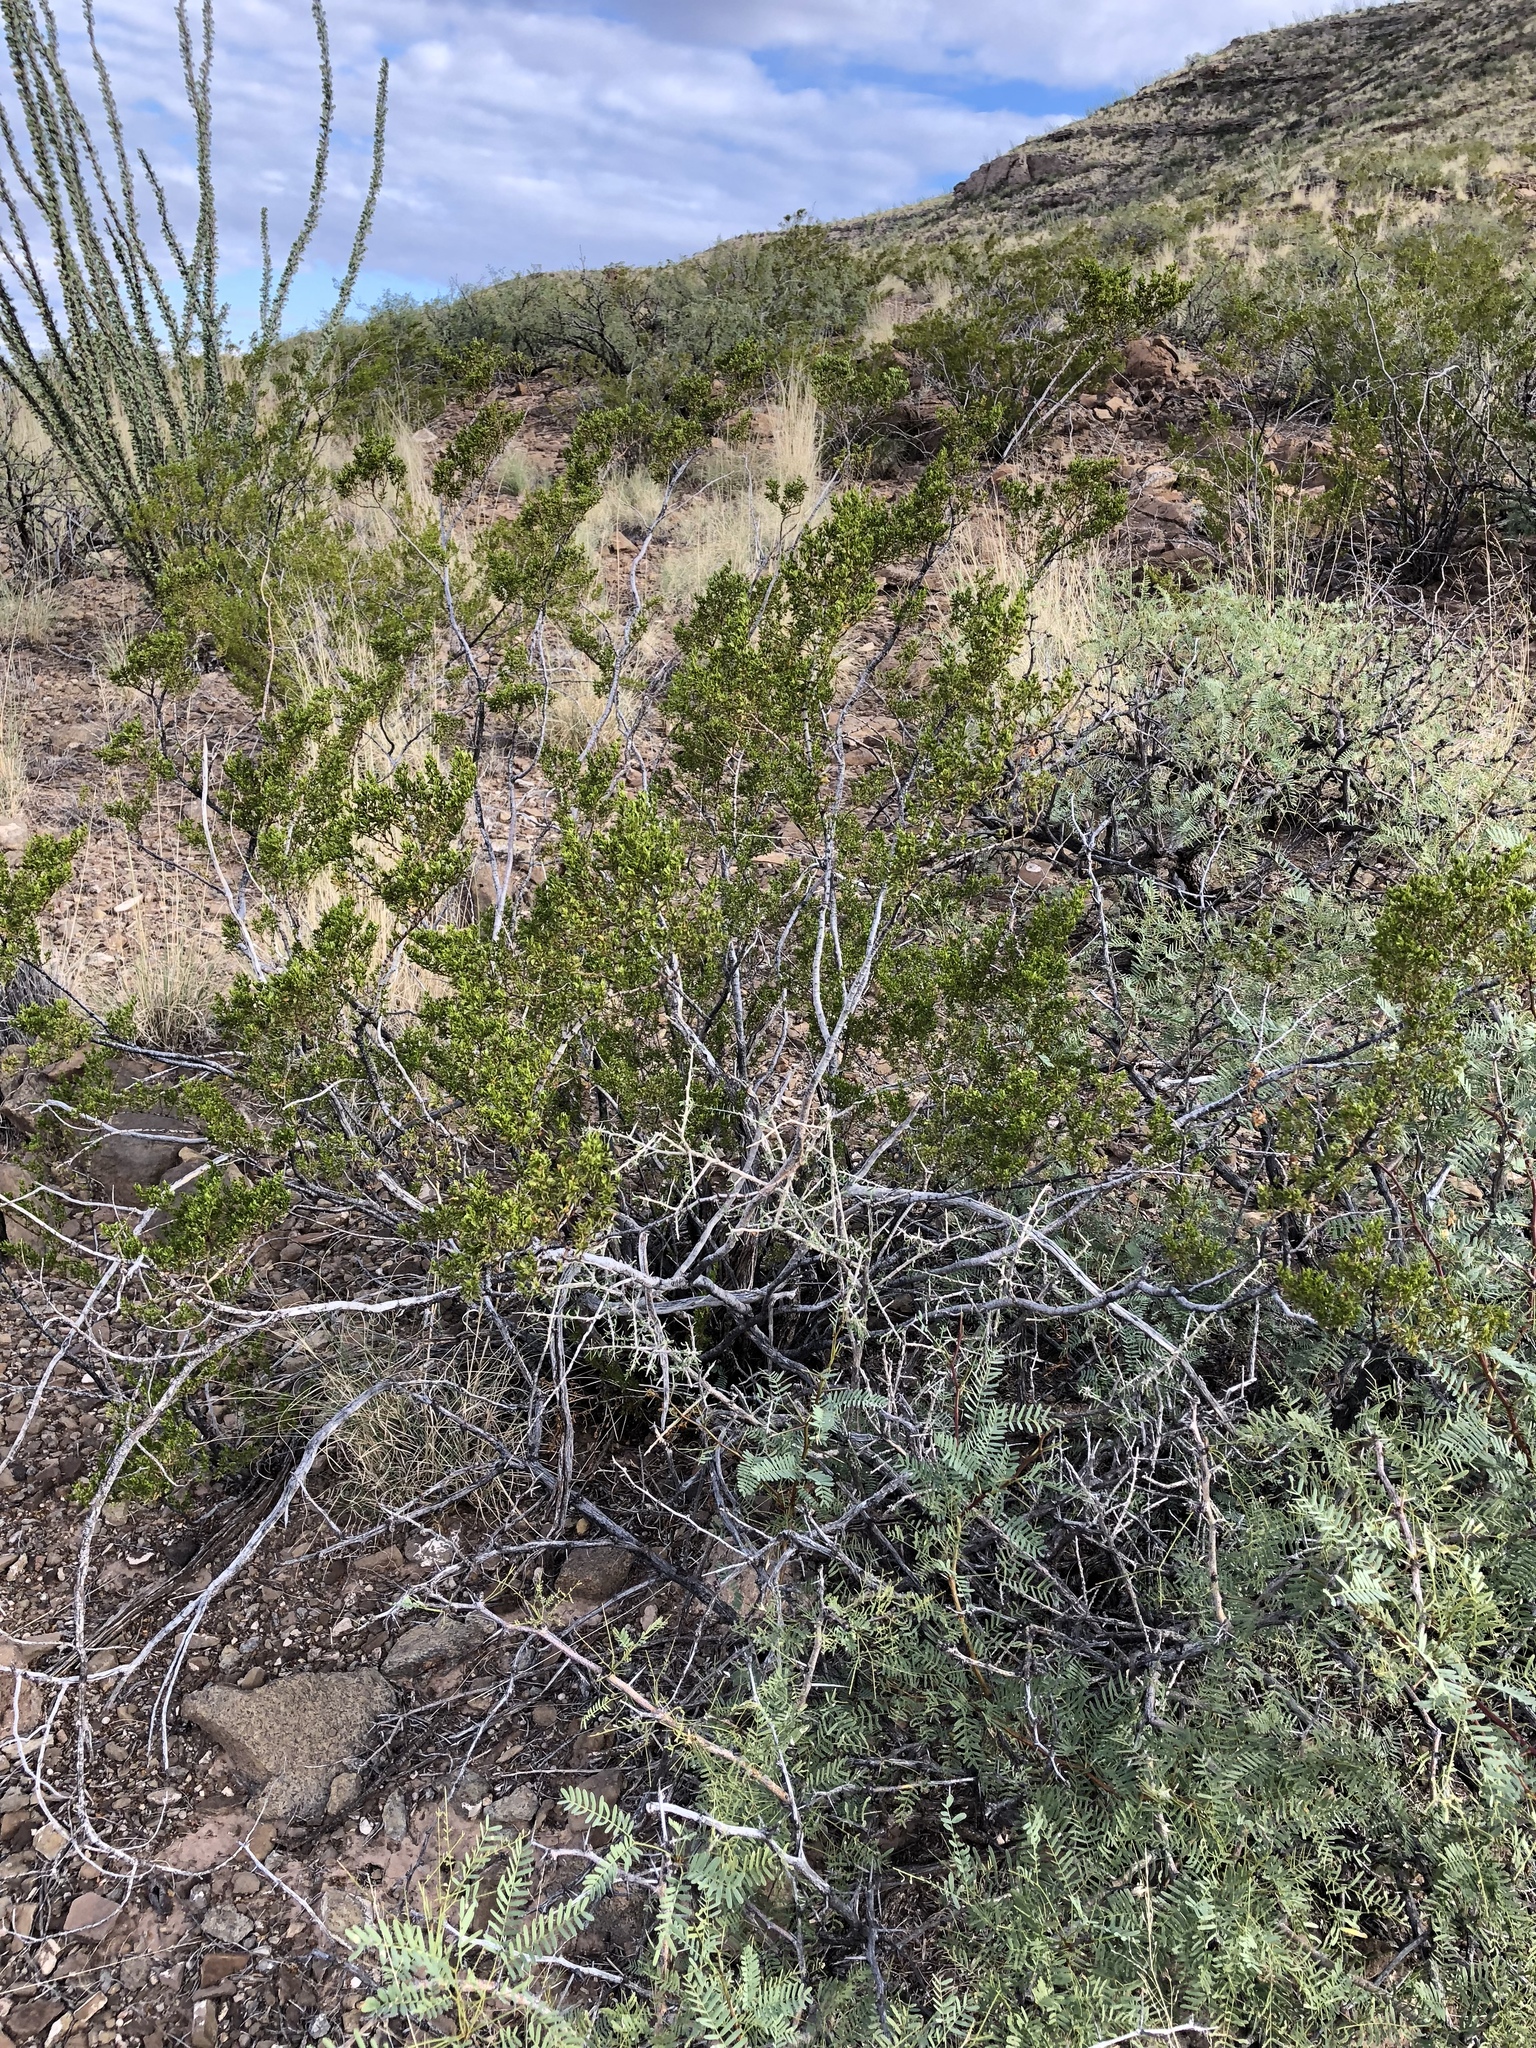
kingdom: Plantae
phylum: Tracheophyta
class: Magnoliopsida
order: Zygophyllales
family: Zygophyllaceae
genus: Larrea
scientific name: Larrea tridentata
